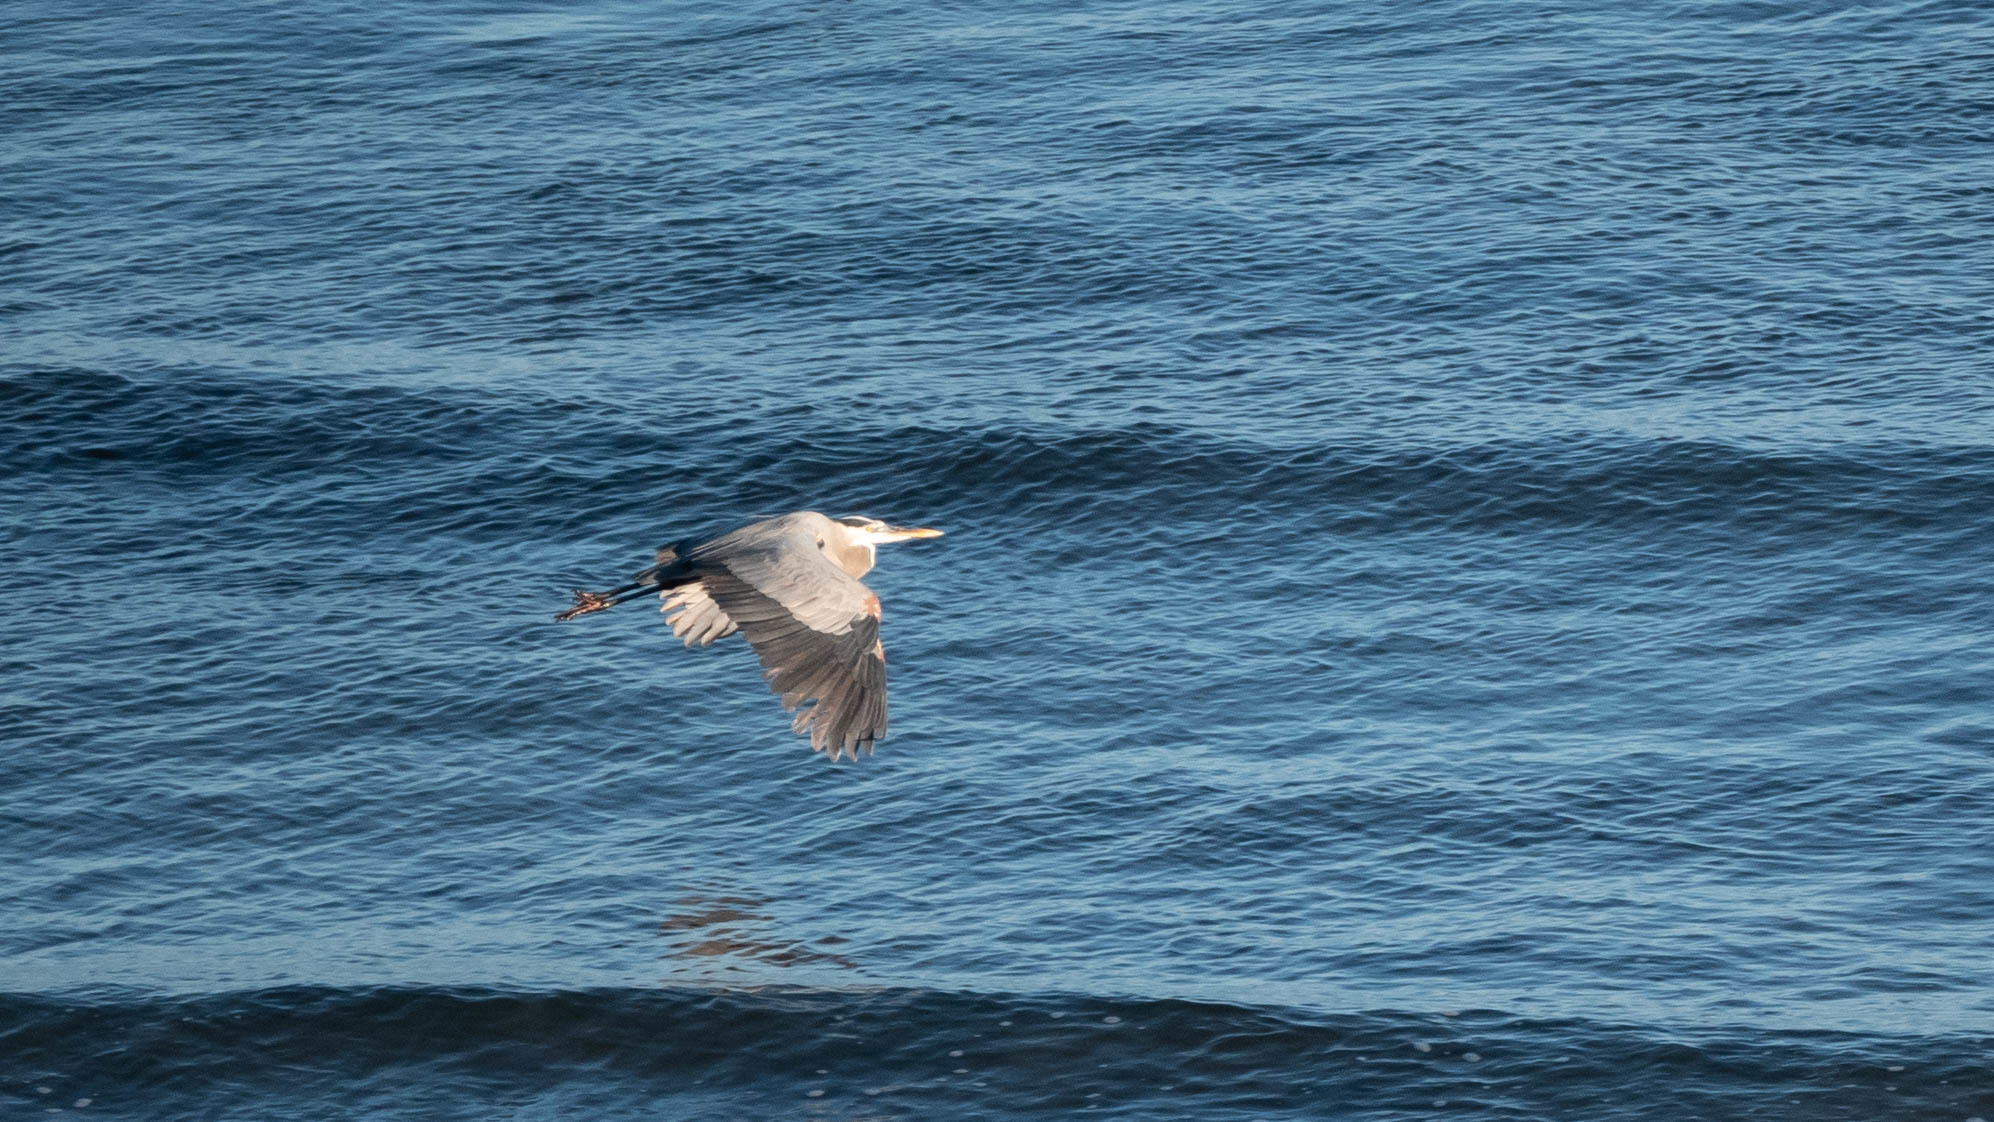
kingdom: Animalia
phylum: Chordata
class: Aves
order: Pelecaniformes
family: Ardeidae
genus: Ardea
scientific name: Ardea herodias
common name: Great blue heron
